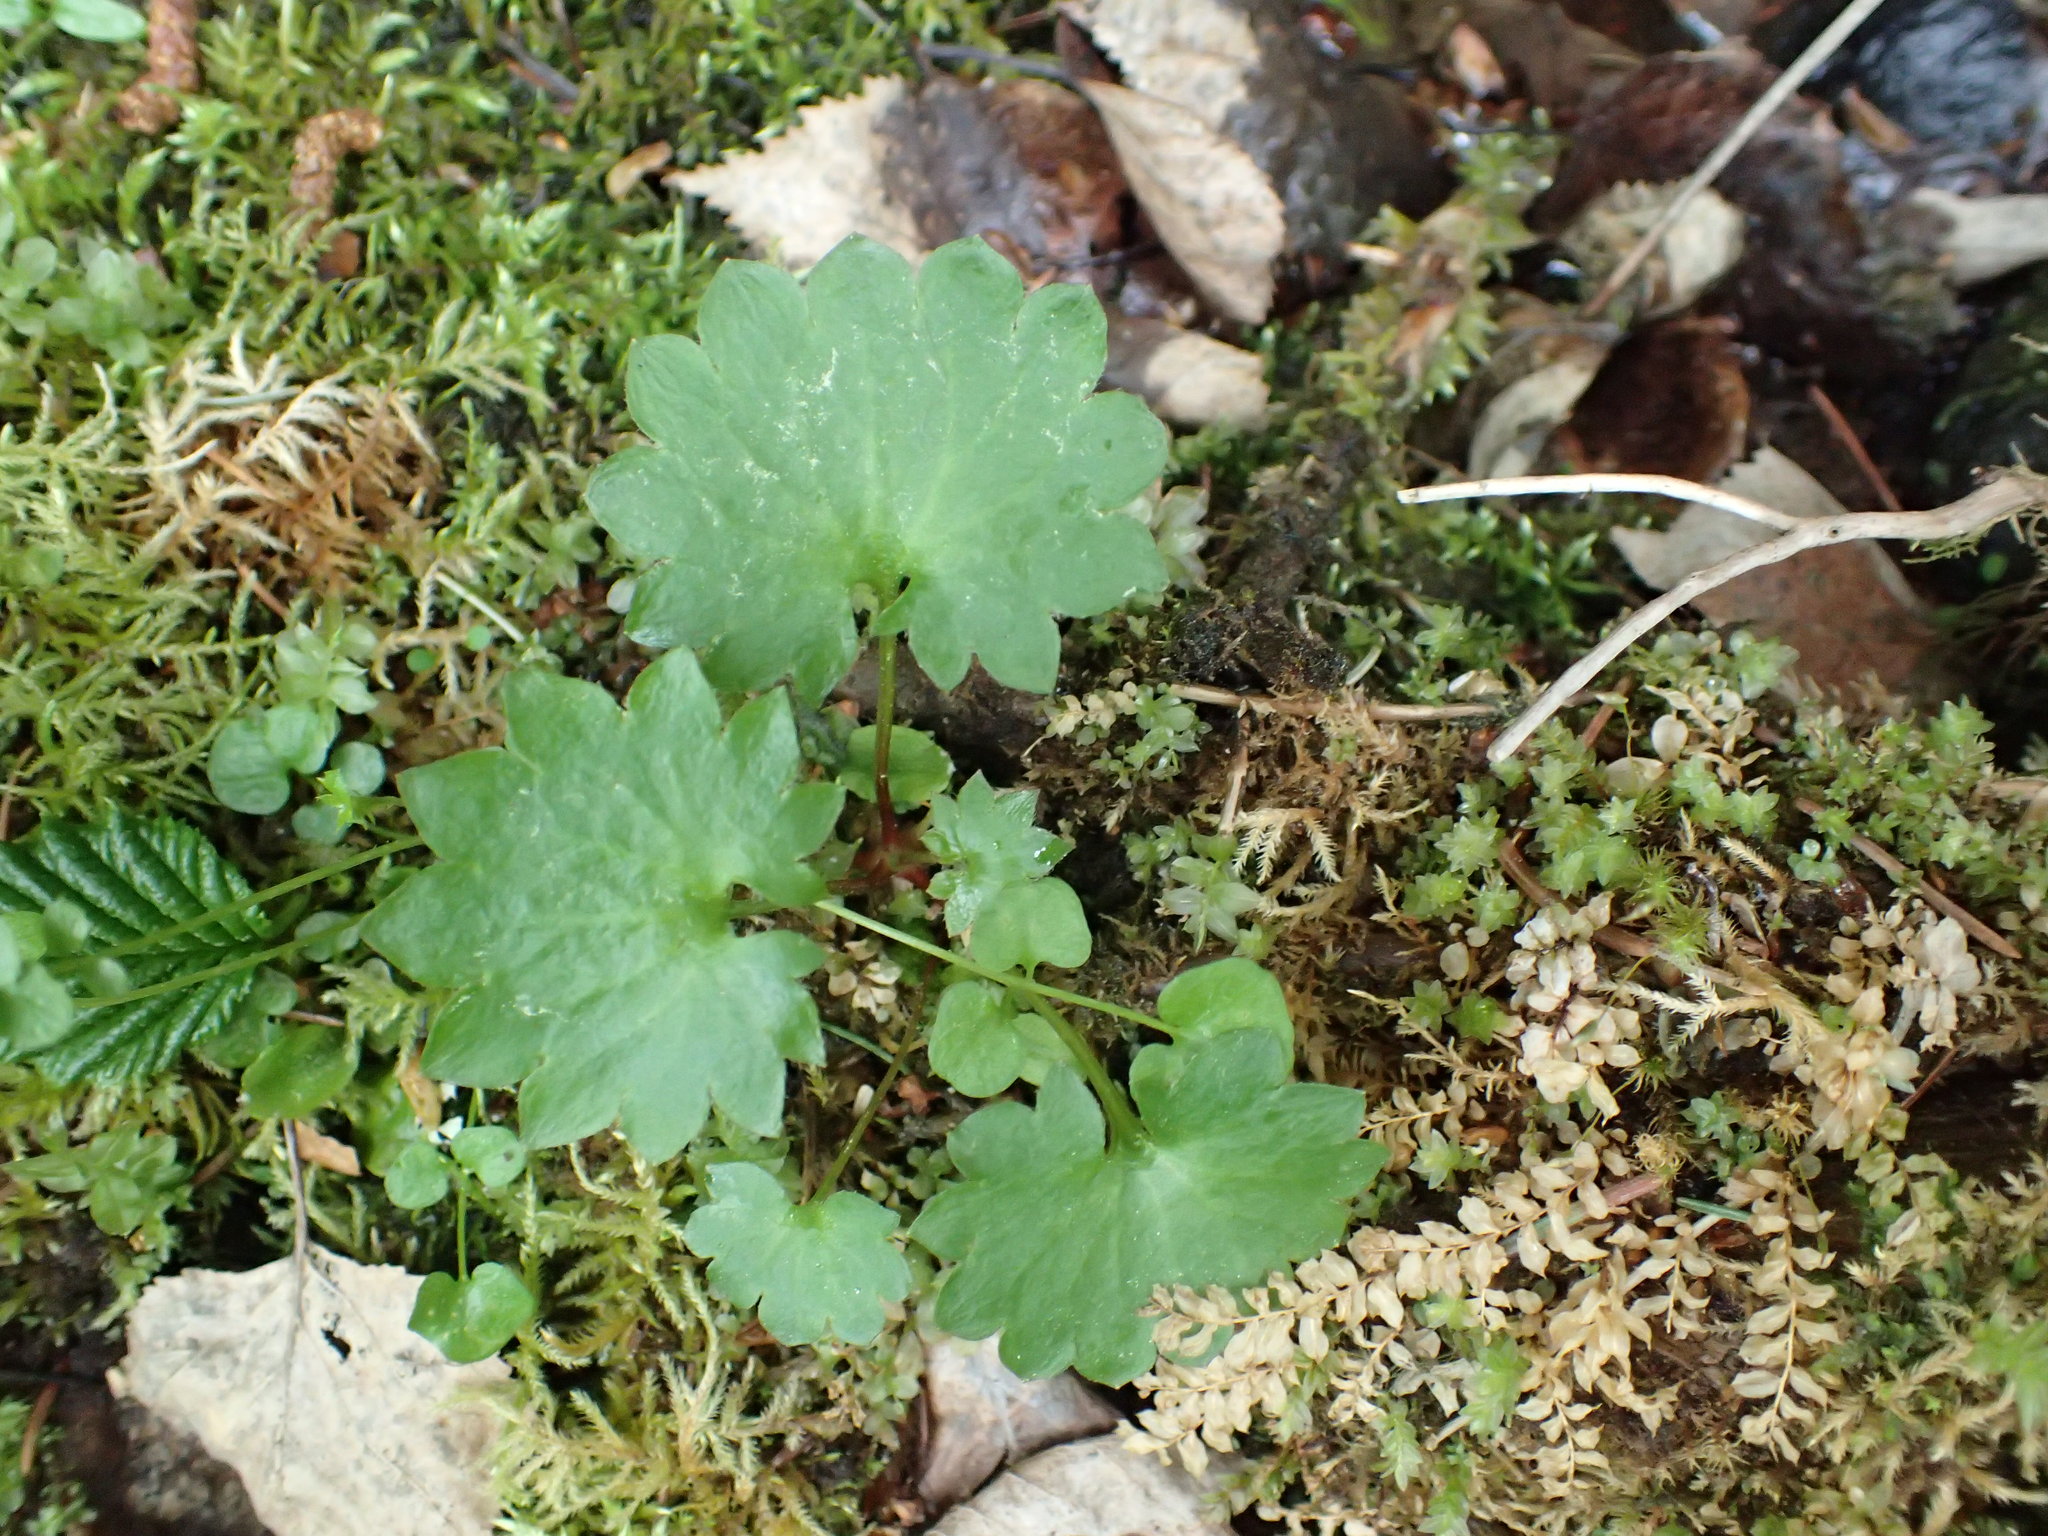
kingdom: Plantae
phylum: Tracheophyta
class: Magnoliopsida
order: Saxifragales
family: Saxifragaceae
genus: Micranthes
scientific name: Micranthes nelsoniana
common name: Nelson's saxifrage
